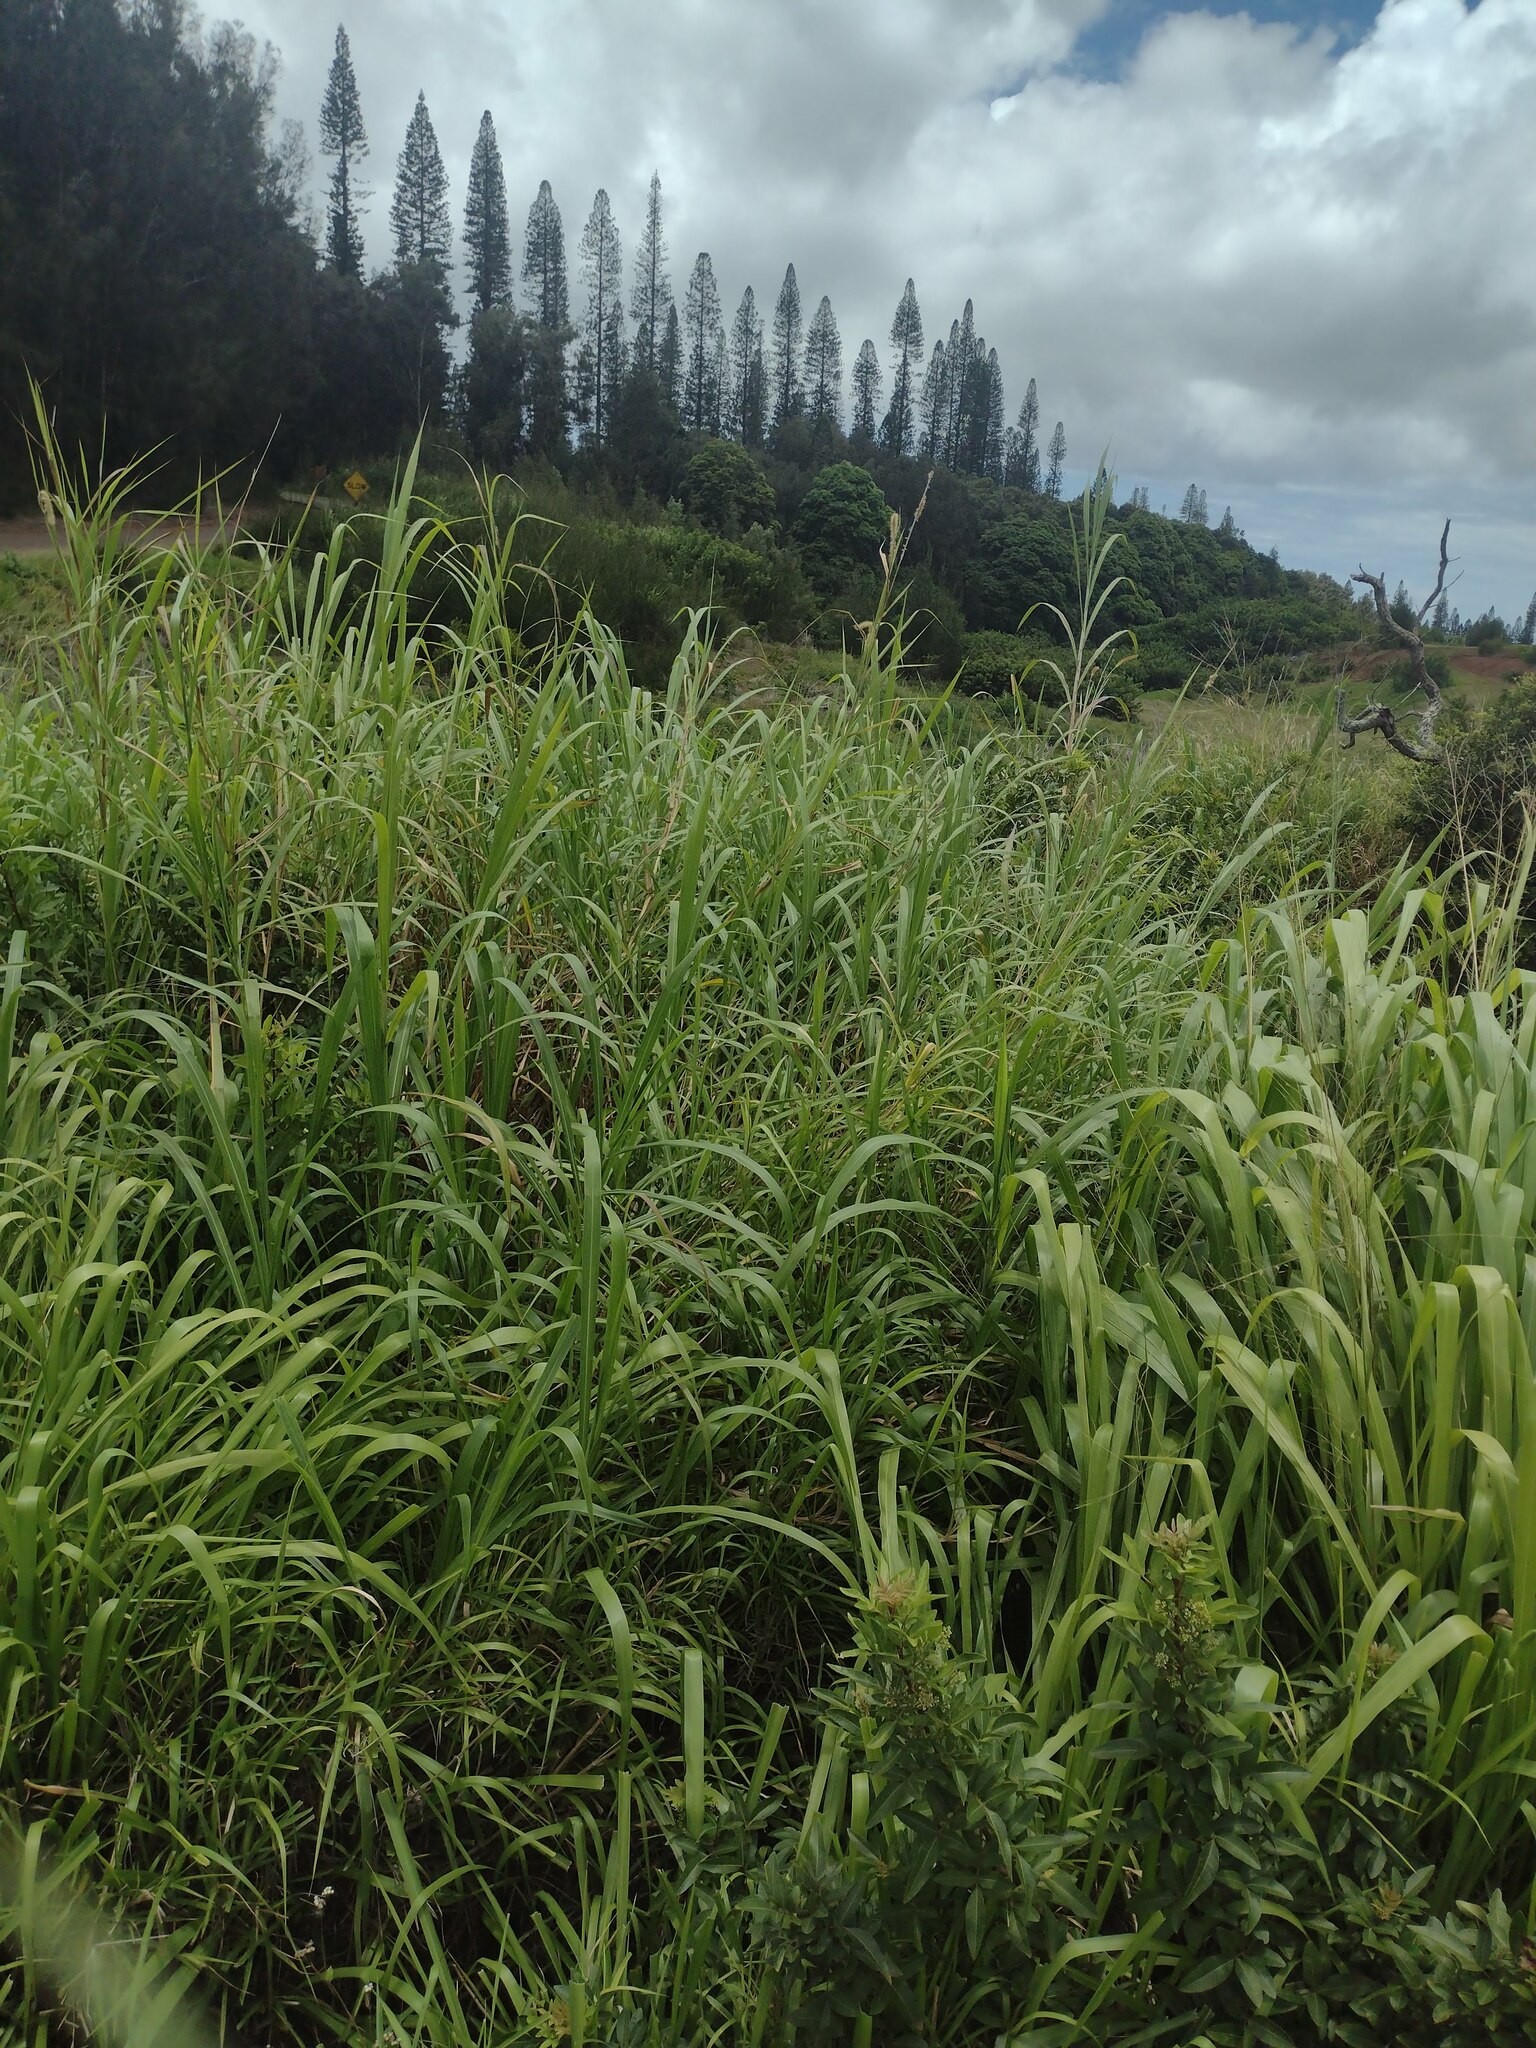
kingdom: Plantae
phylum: Tracheophyta
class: Liliopsida
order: Poales
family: Poaceae
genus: Cenchrus
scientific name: Cenchrus purpureus
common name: Elephant grass
